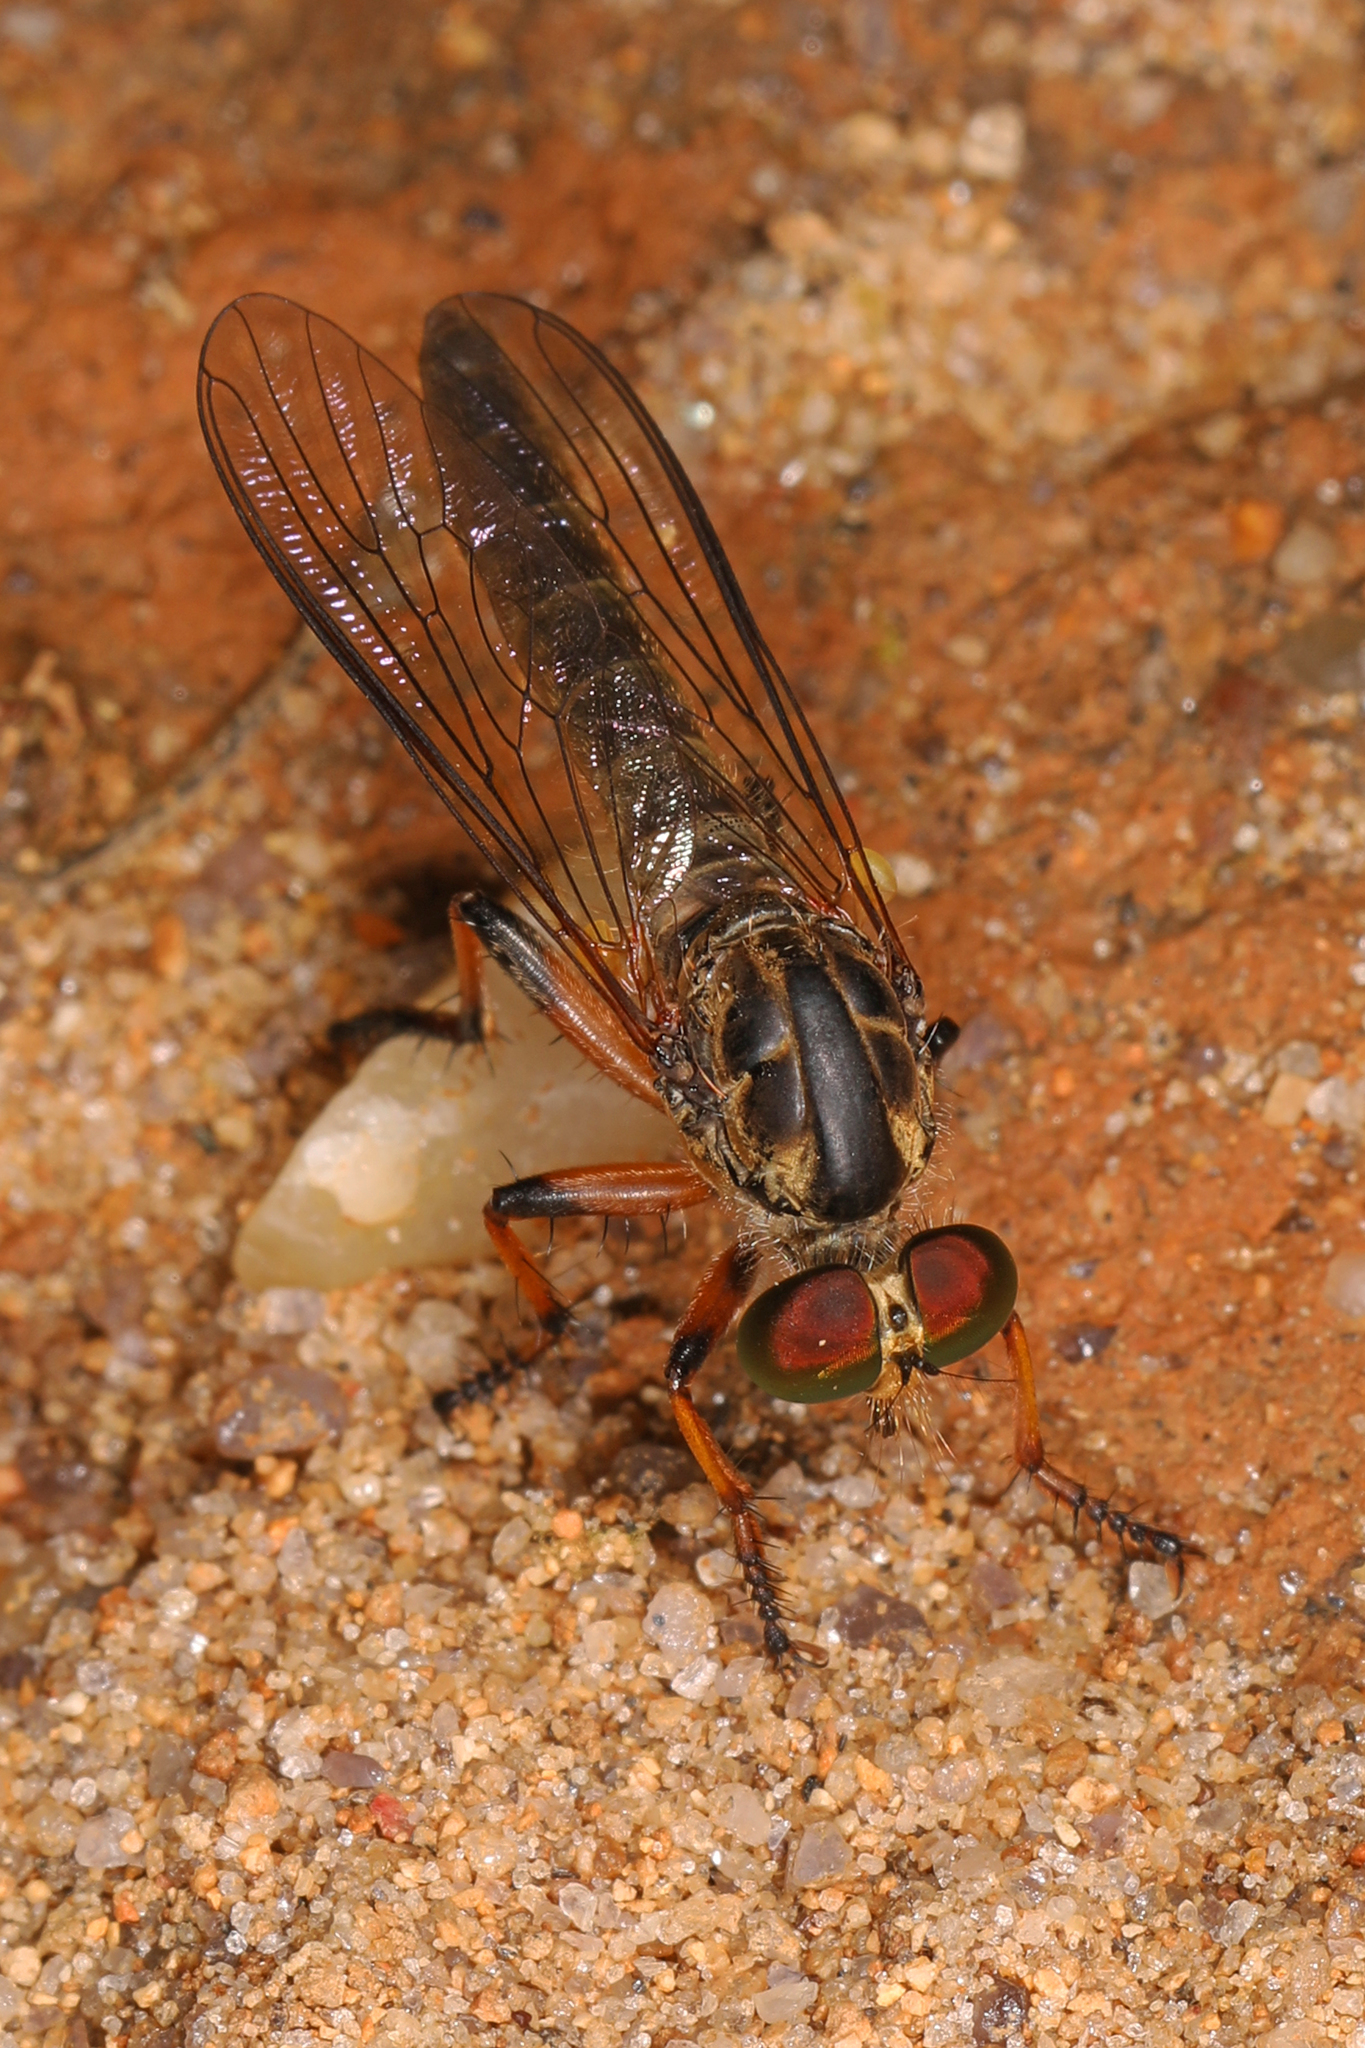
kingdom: Animalia
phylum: Arthropoda
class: Insecta
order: Diptera
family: Asilidae
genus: Ommatius
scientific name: Ommatius
